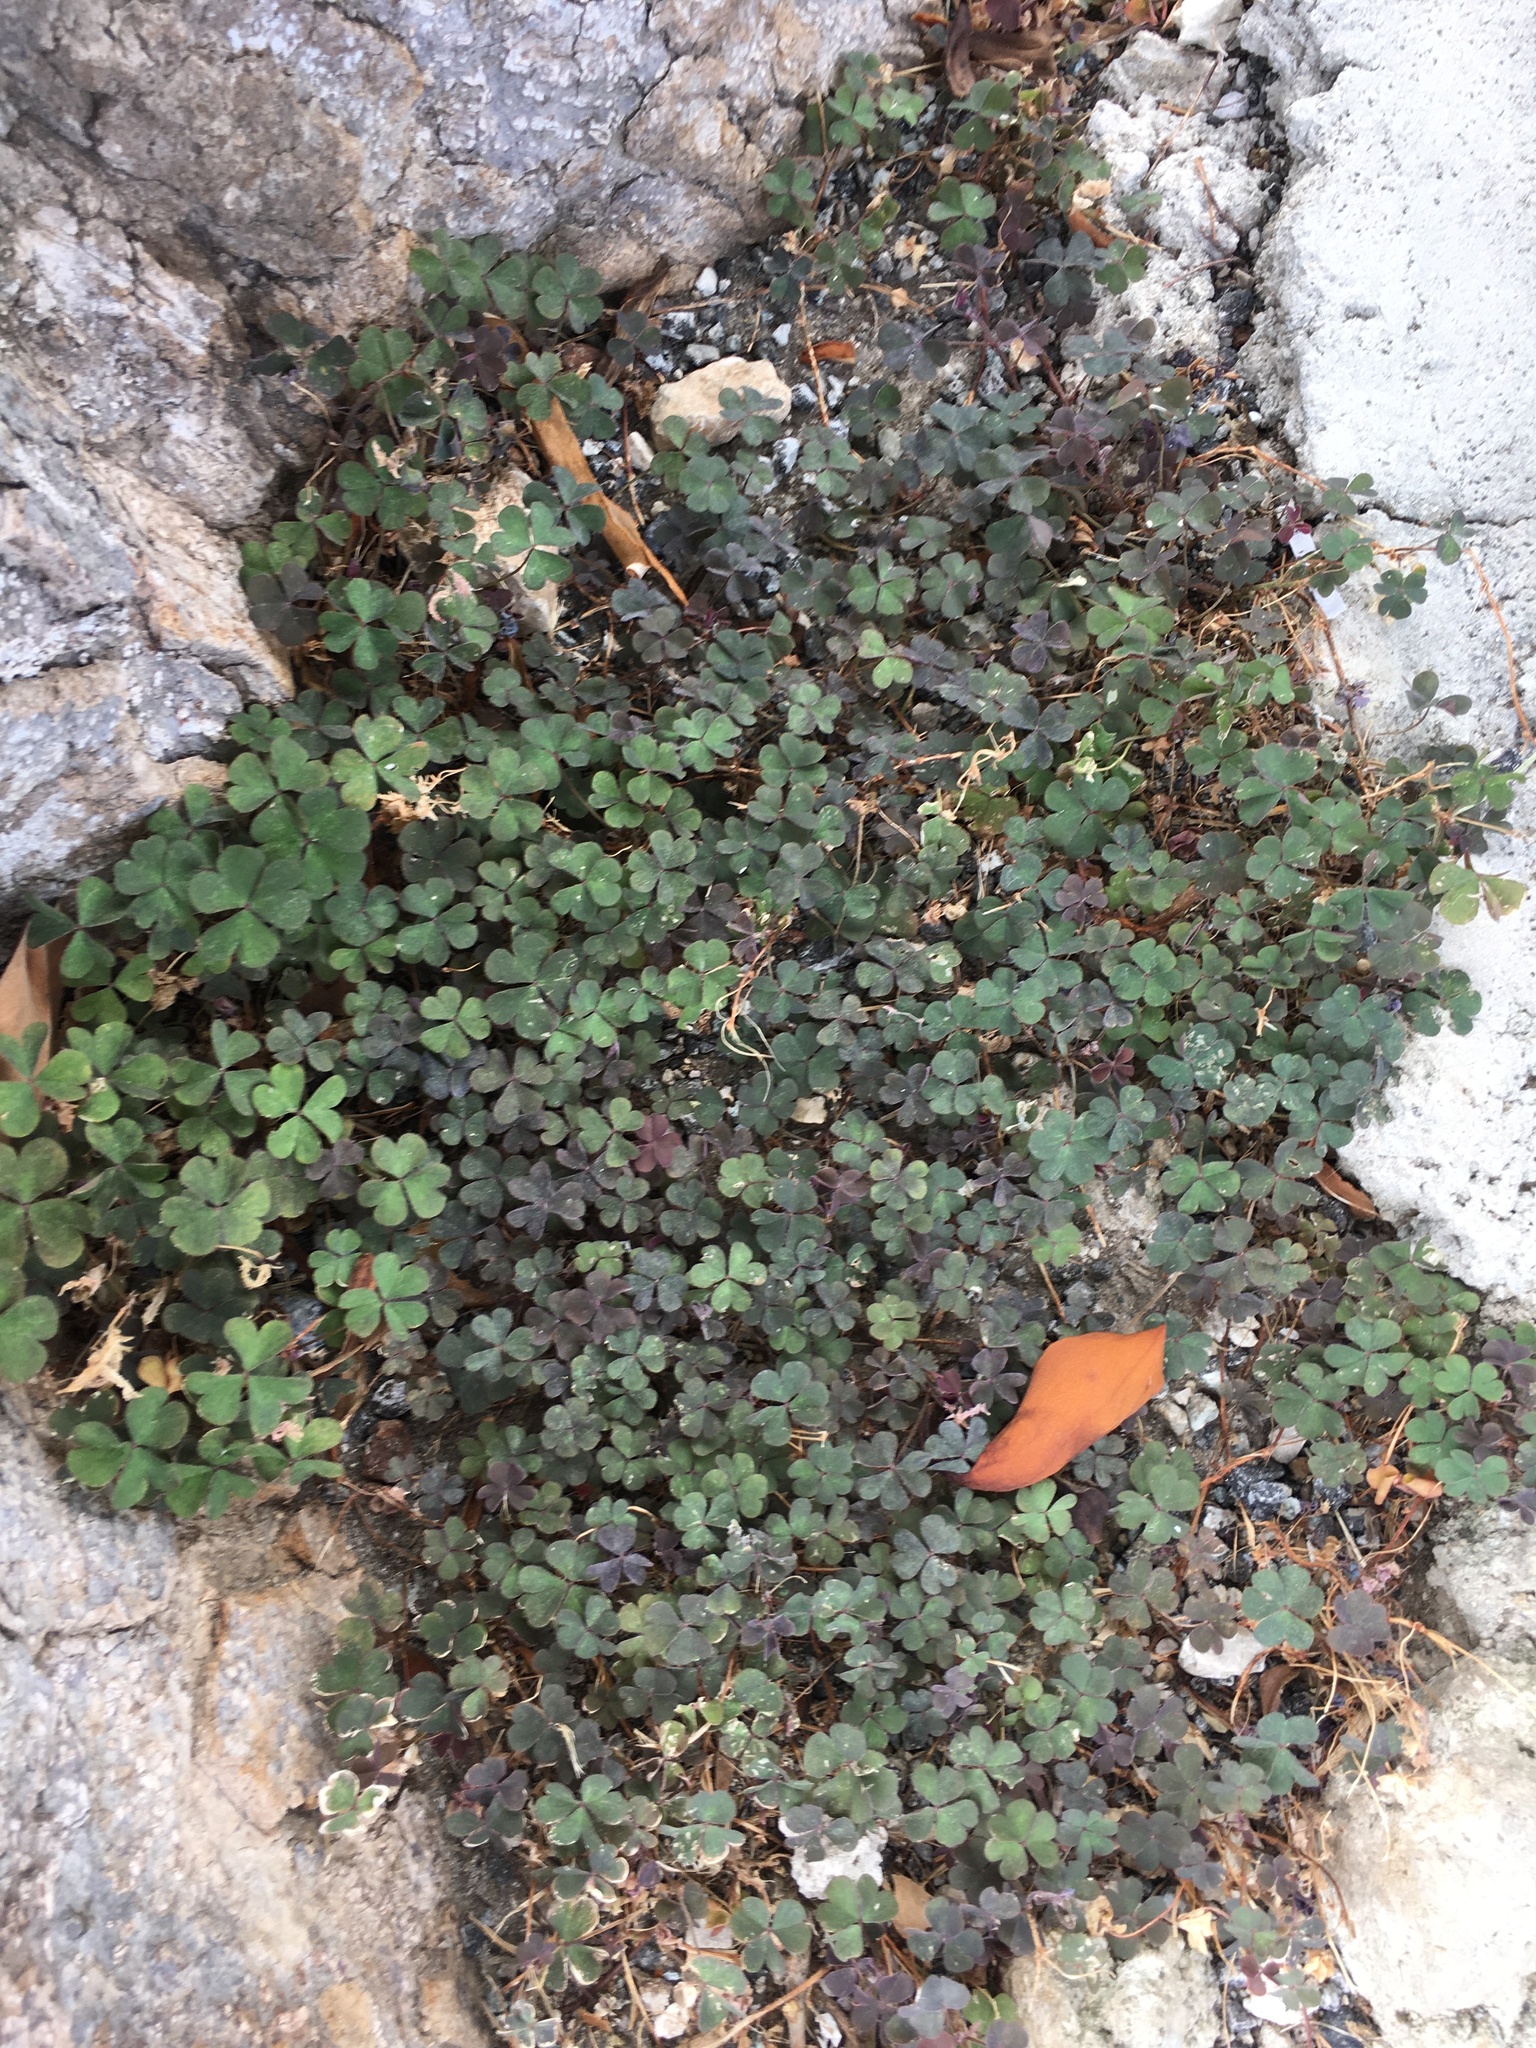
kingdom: Plantae
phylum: Tracheophyta
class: Magnoliopsida
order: Oxalidales
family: Oxalidaceae
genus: Oxalis
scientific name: Oxalis corniculata
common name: Procumbent yellow-sorrel
